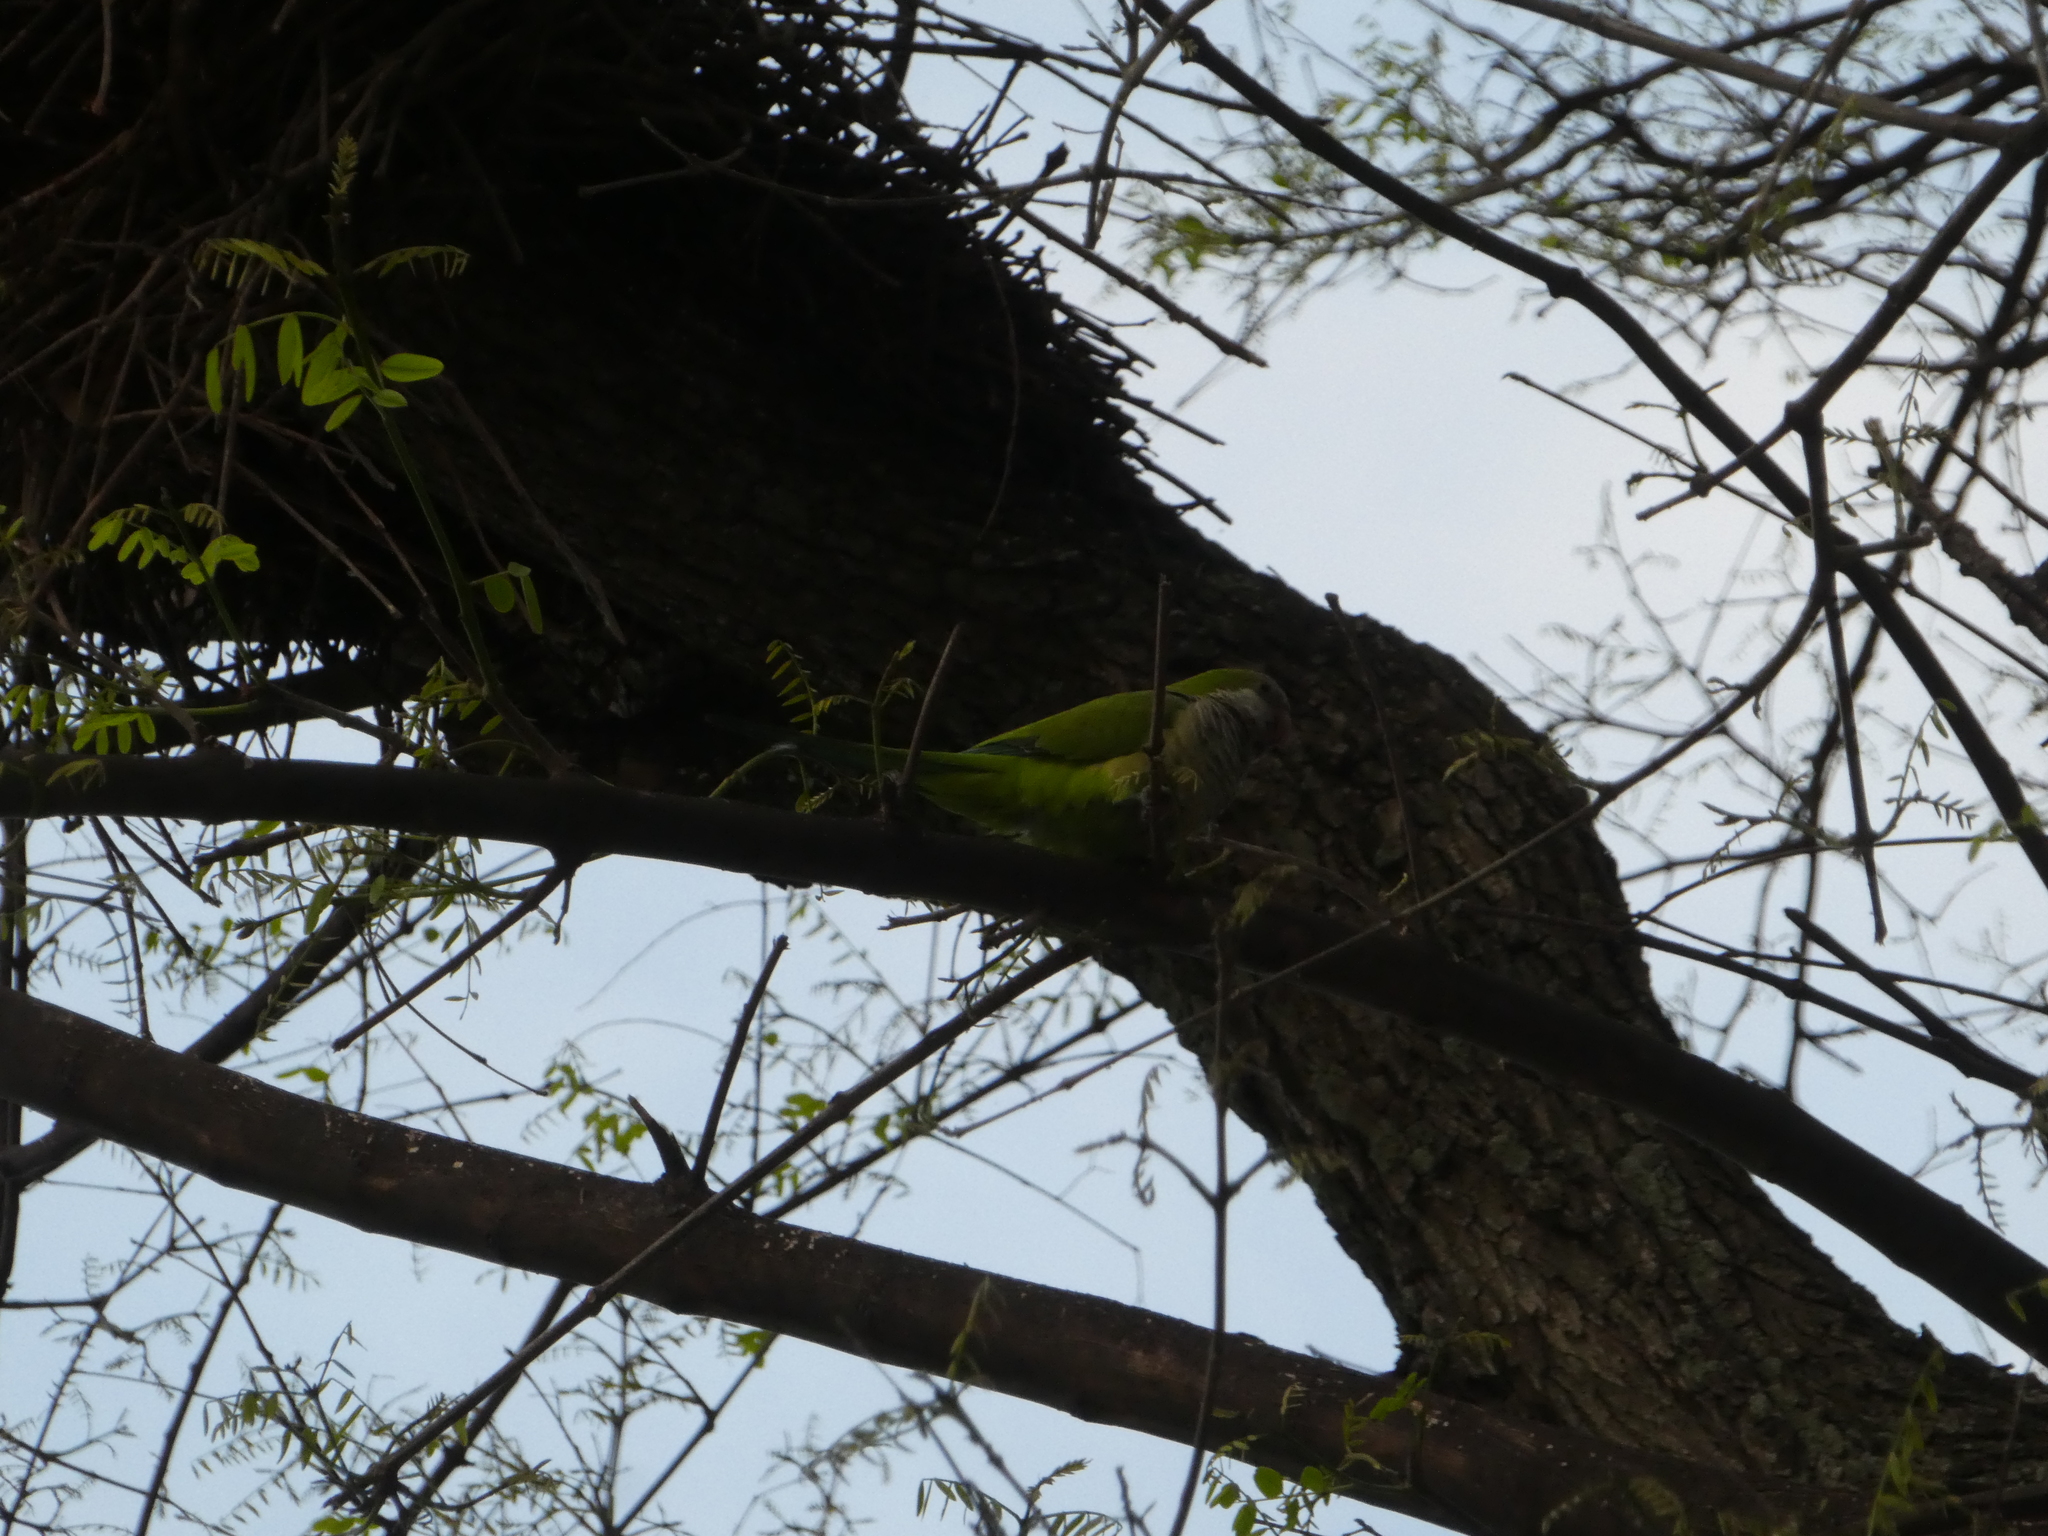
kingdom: Animalia
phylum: Chordata
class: Aves
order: Psittaciformes
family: Psittacidae
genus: Myiopsitta
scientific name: Myiopsitta monachus
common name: Monk parakeet
